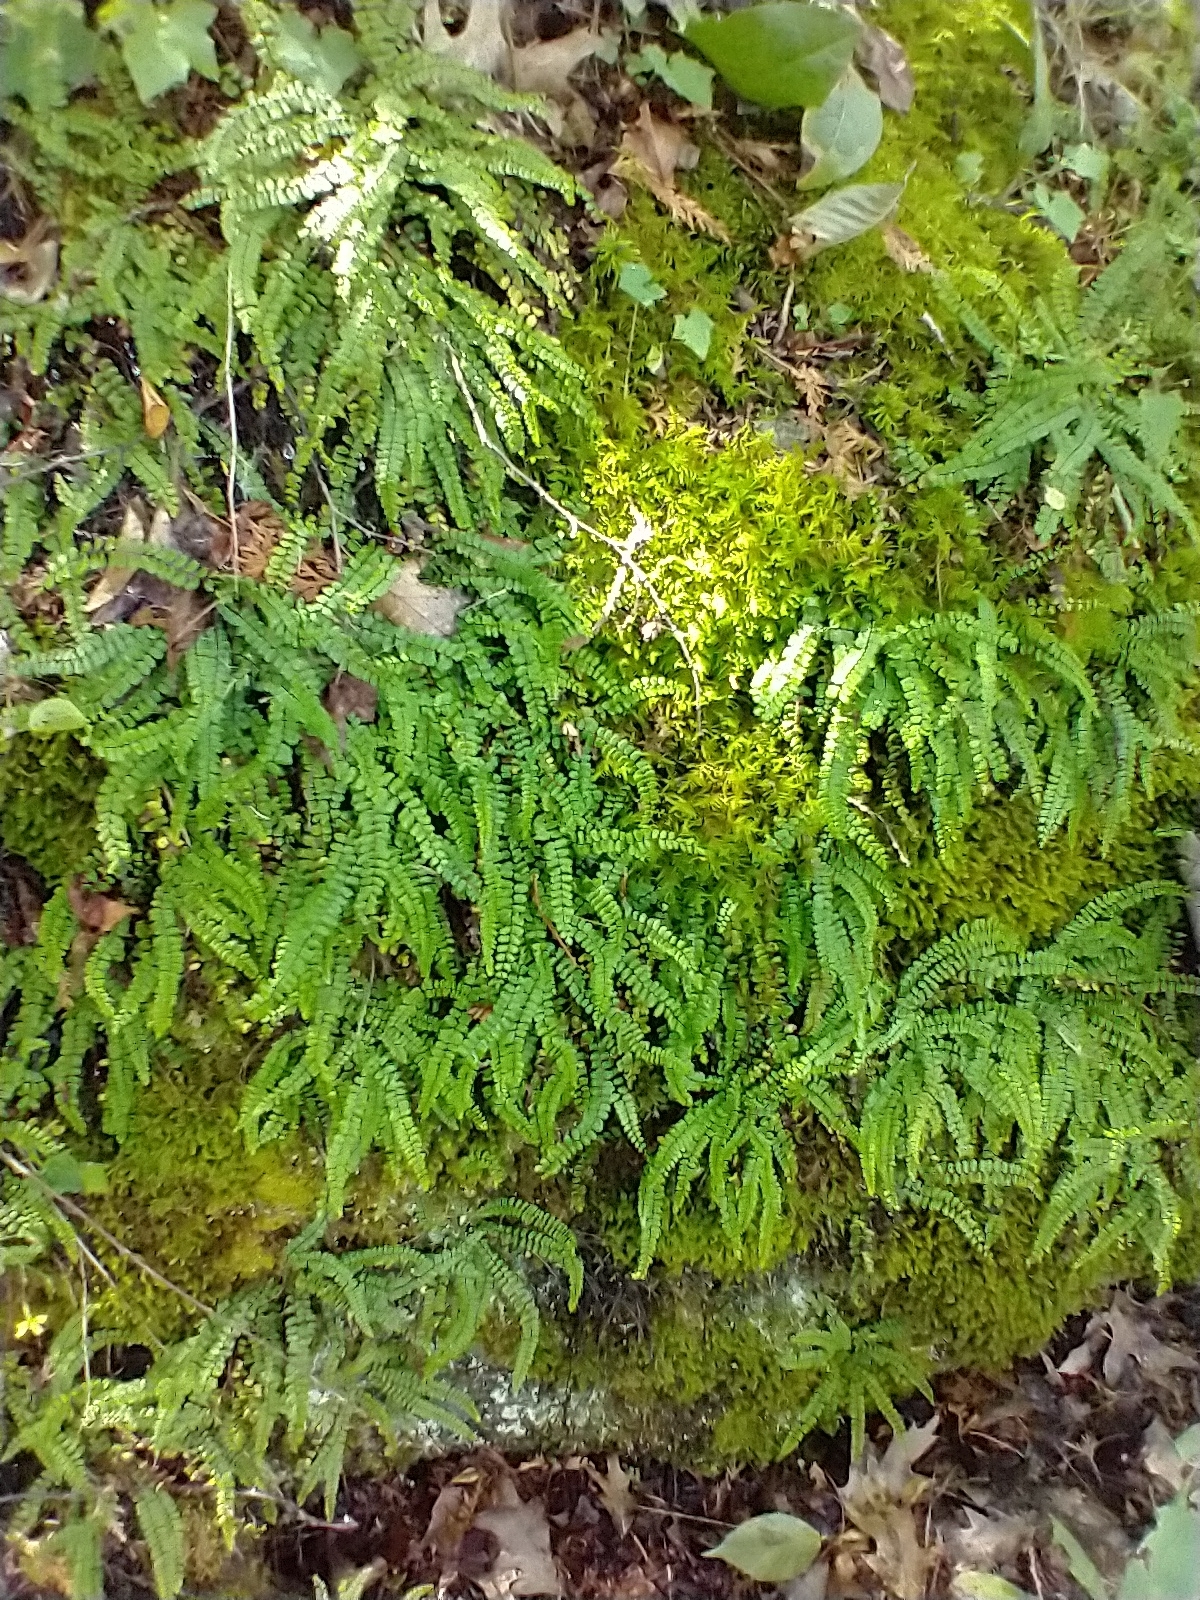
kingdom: Plantae
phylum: Tracheophyta
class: Polypodiopsida
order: Polypodiales
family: Aspleniaceae
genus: Asplenium
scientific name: Asplenium trichomanes
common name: Maidenhair spleenwort
